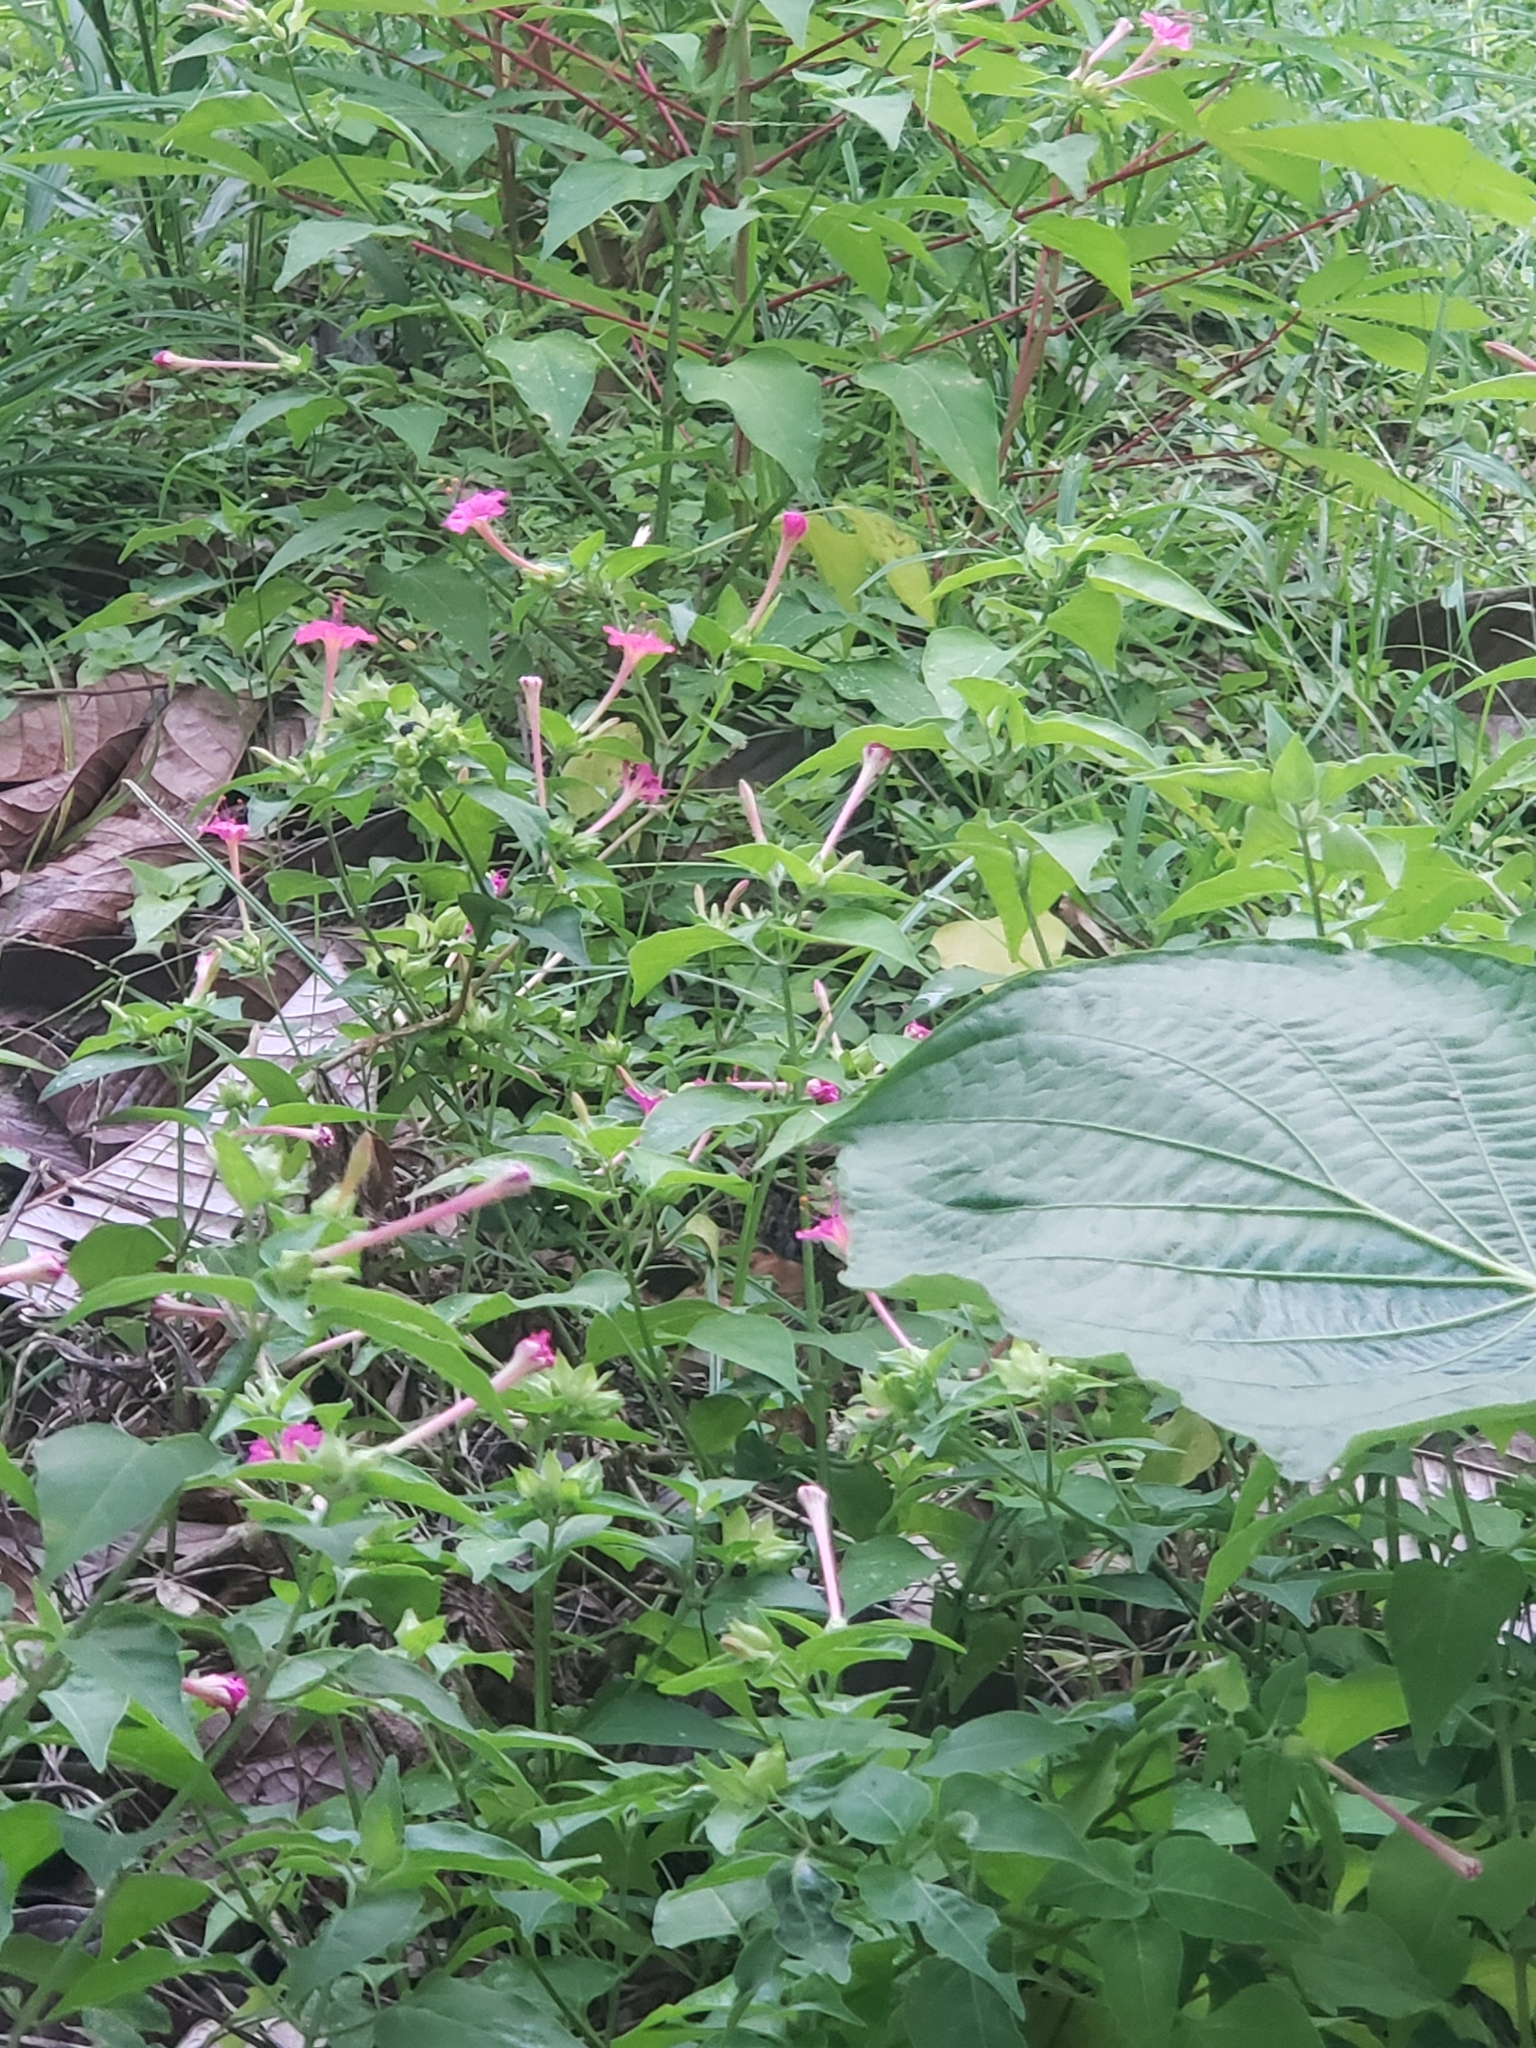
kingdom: Plantae
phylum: Tracheophyta
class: Magnoliopsida
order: Caryophyllales
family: Nyctaginaceae
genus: Mirabilis
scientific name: Mirabilis jalapa
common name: Marvel-of-peru
